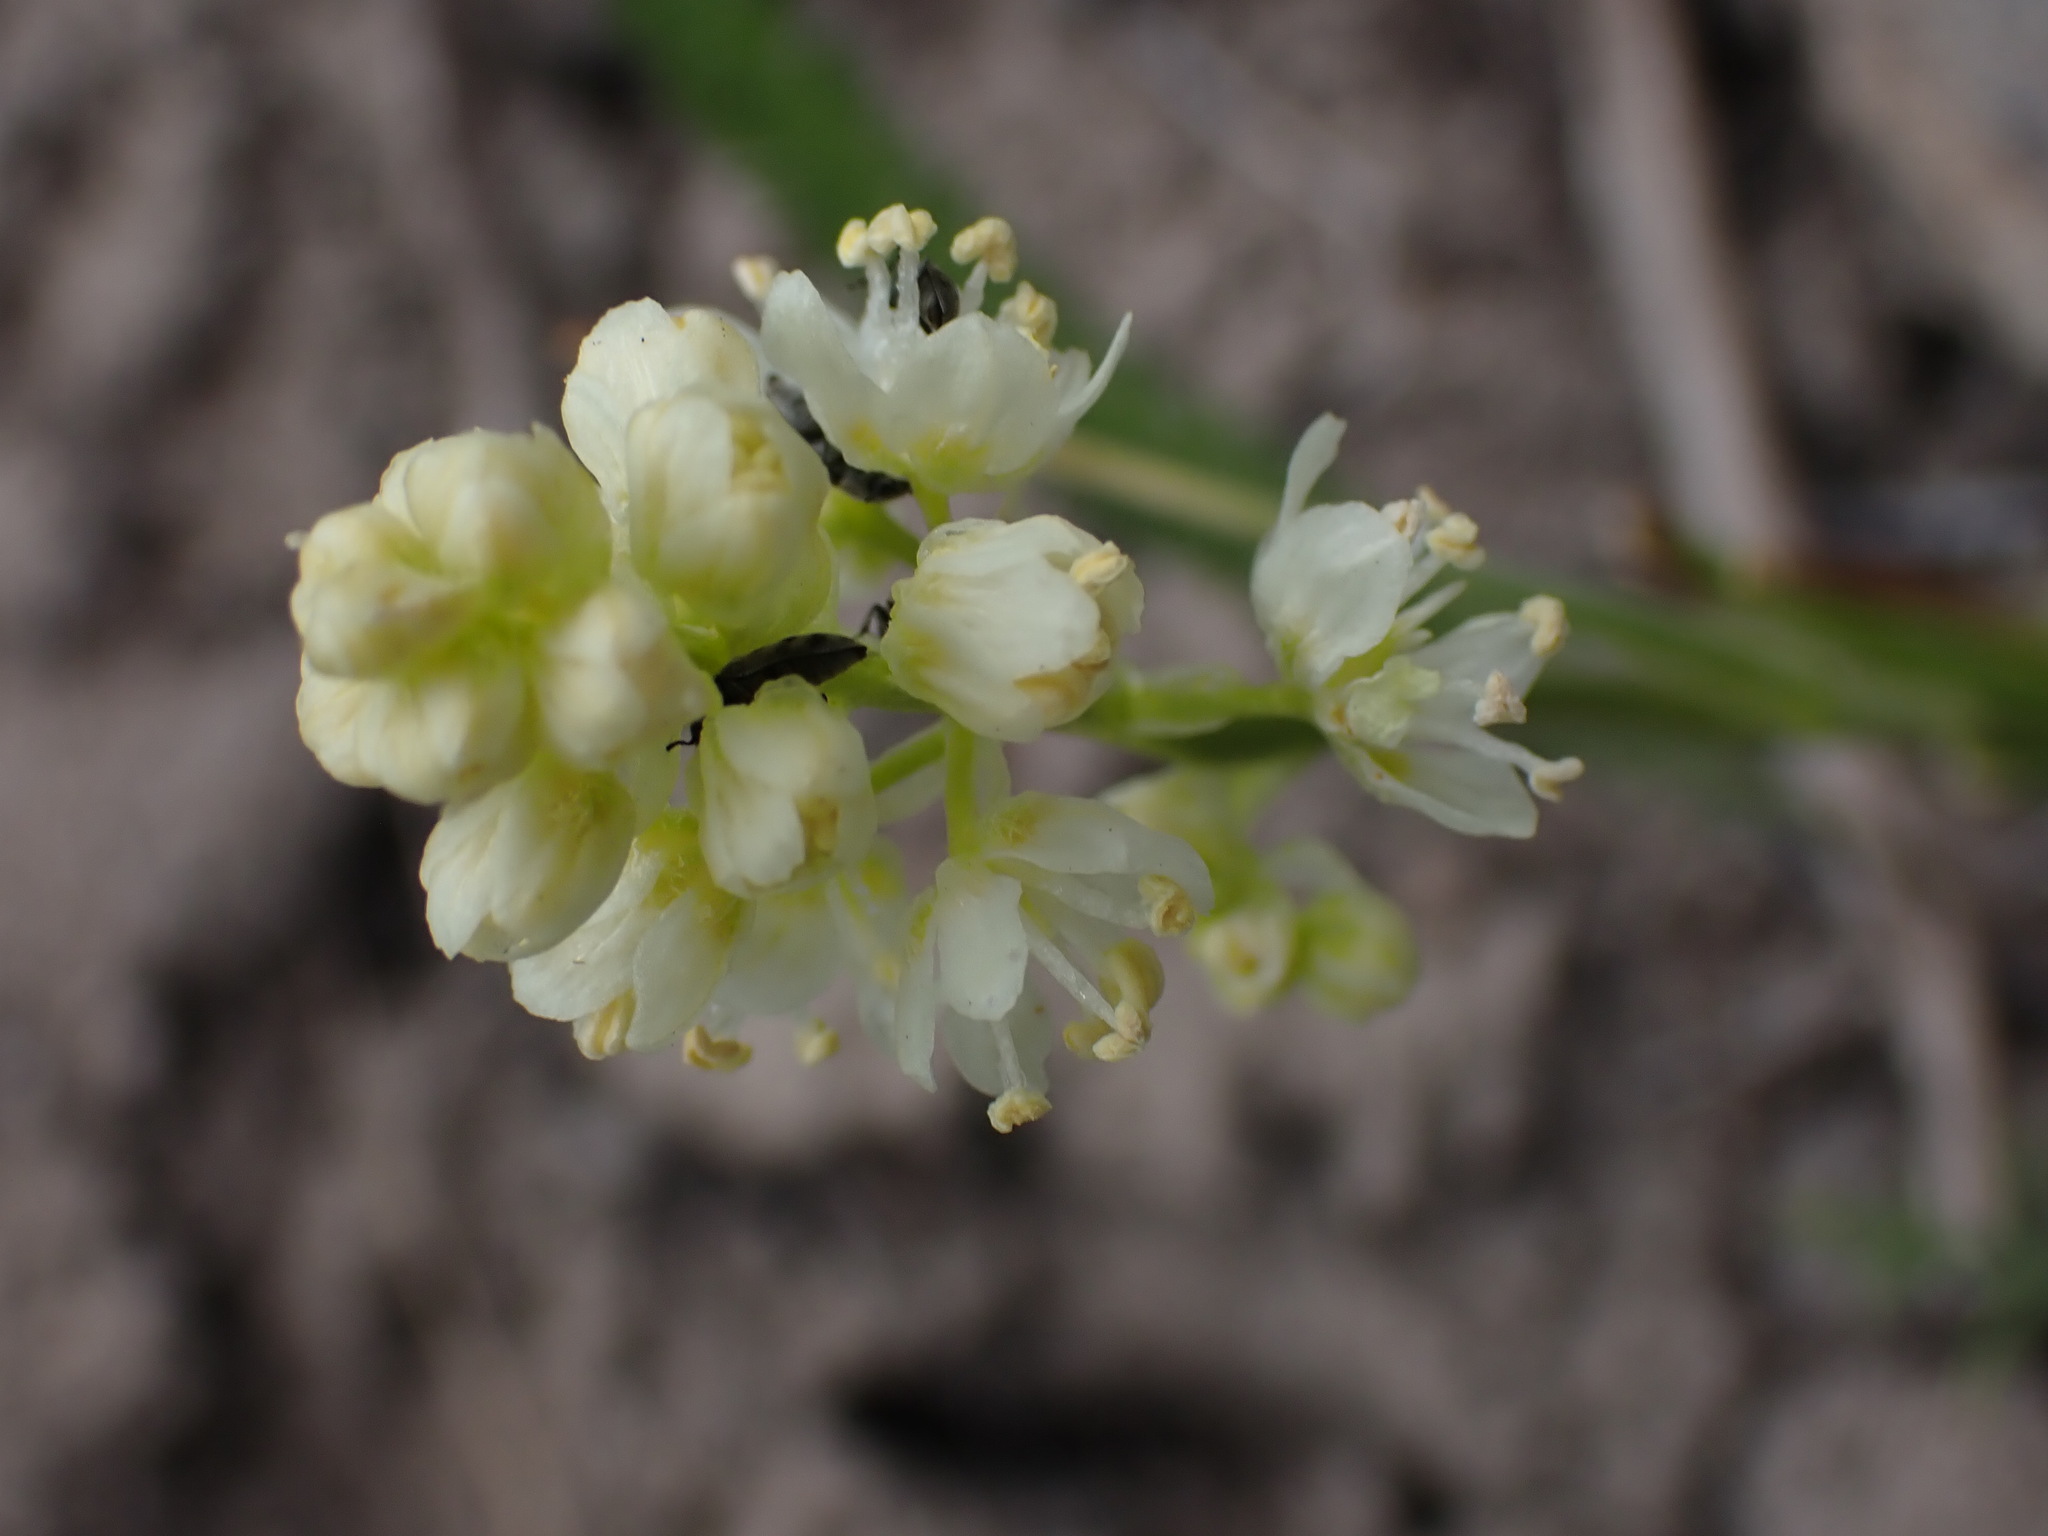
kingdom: Plantae
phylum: Tracheophyta
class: Liliopsida
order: Liliales
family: Melanthiaceae
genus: Toxicoscordion
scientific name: Toxicoscordion venenosum
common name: Meadow death camas
